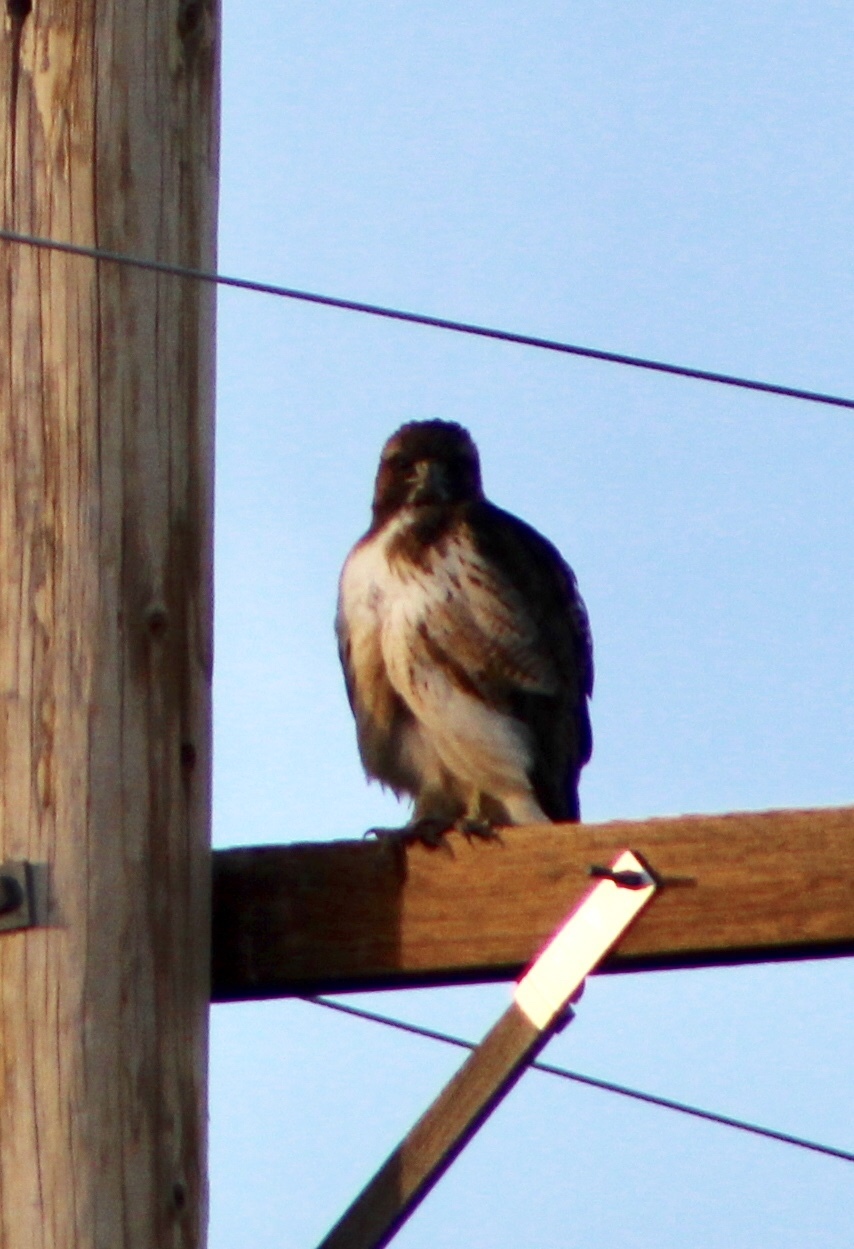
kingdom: Animalia
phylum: Chordata
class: Aves
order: Accipitriformes
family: Accipitridae
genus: Buteo
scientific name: Buteo jamaicensis
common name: Red-tailed hawk
